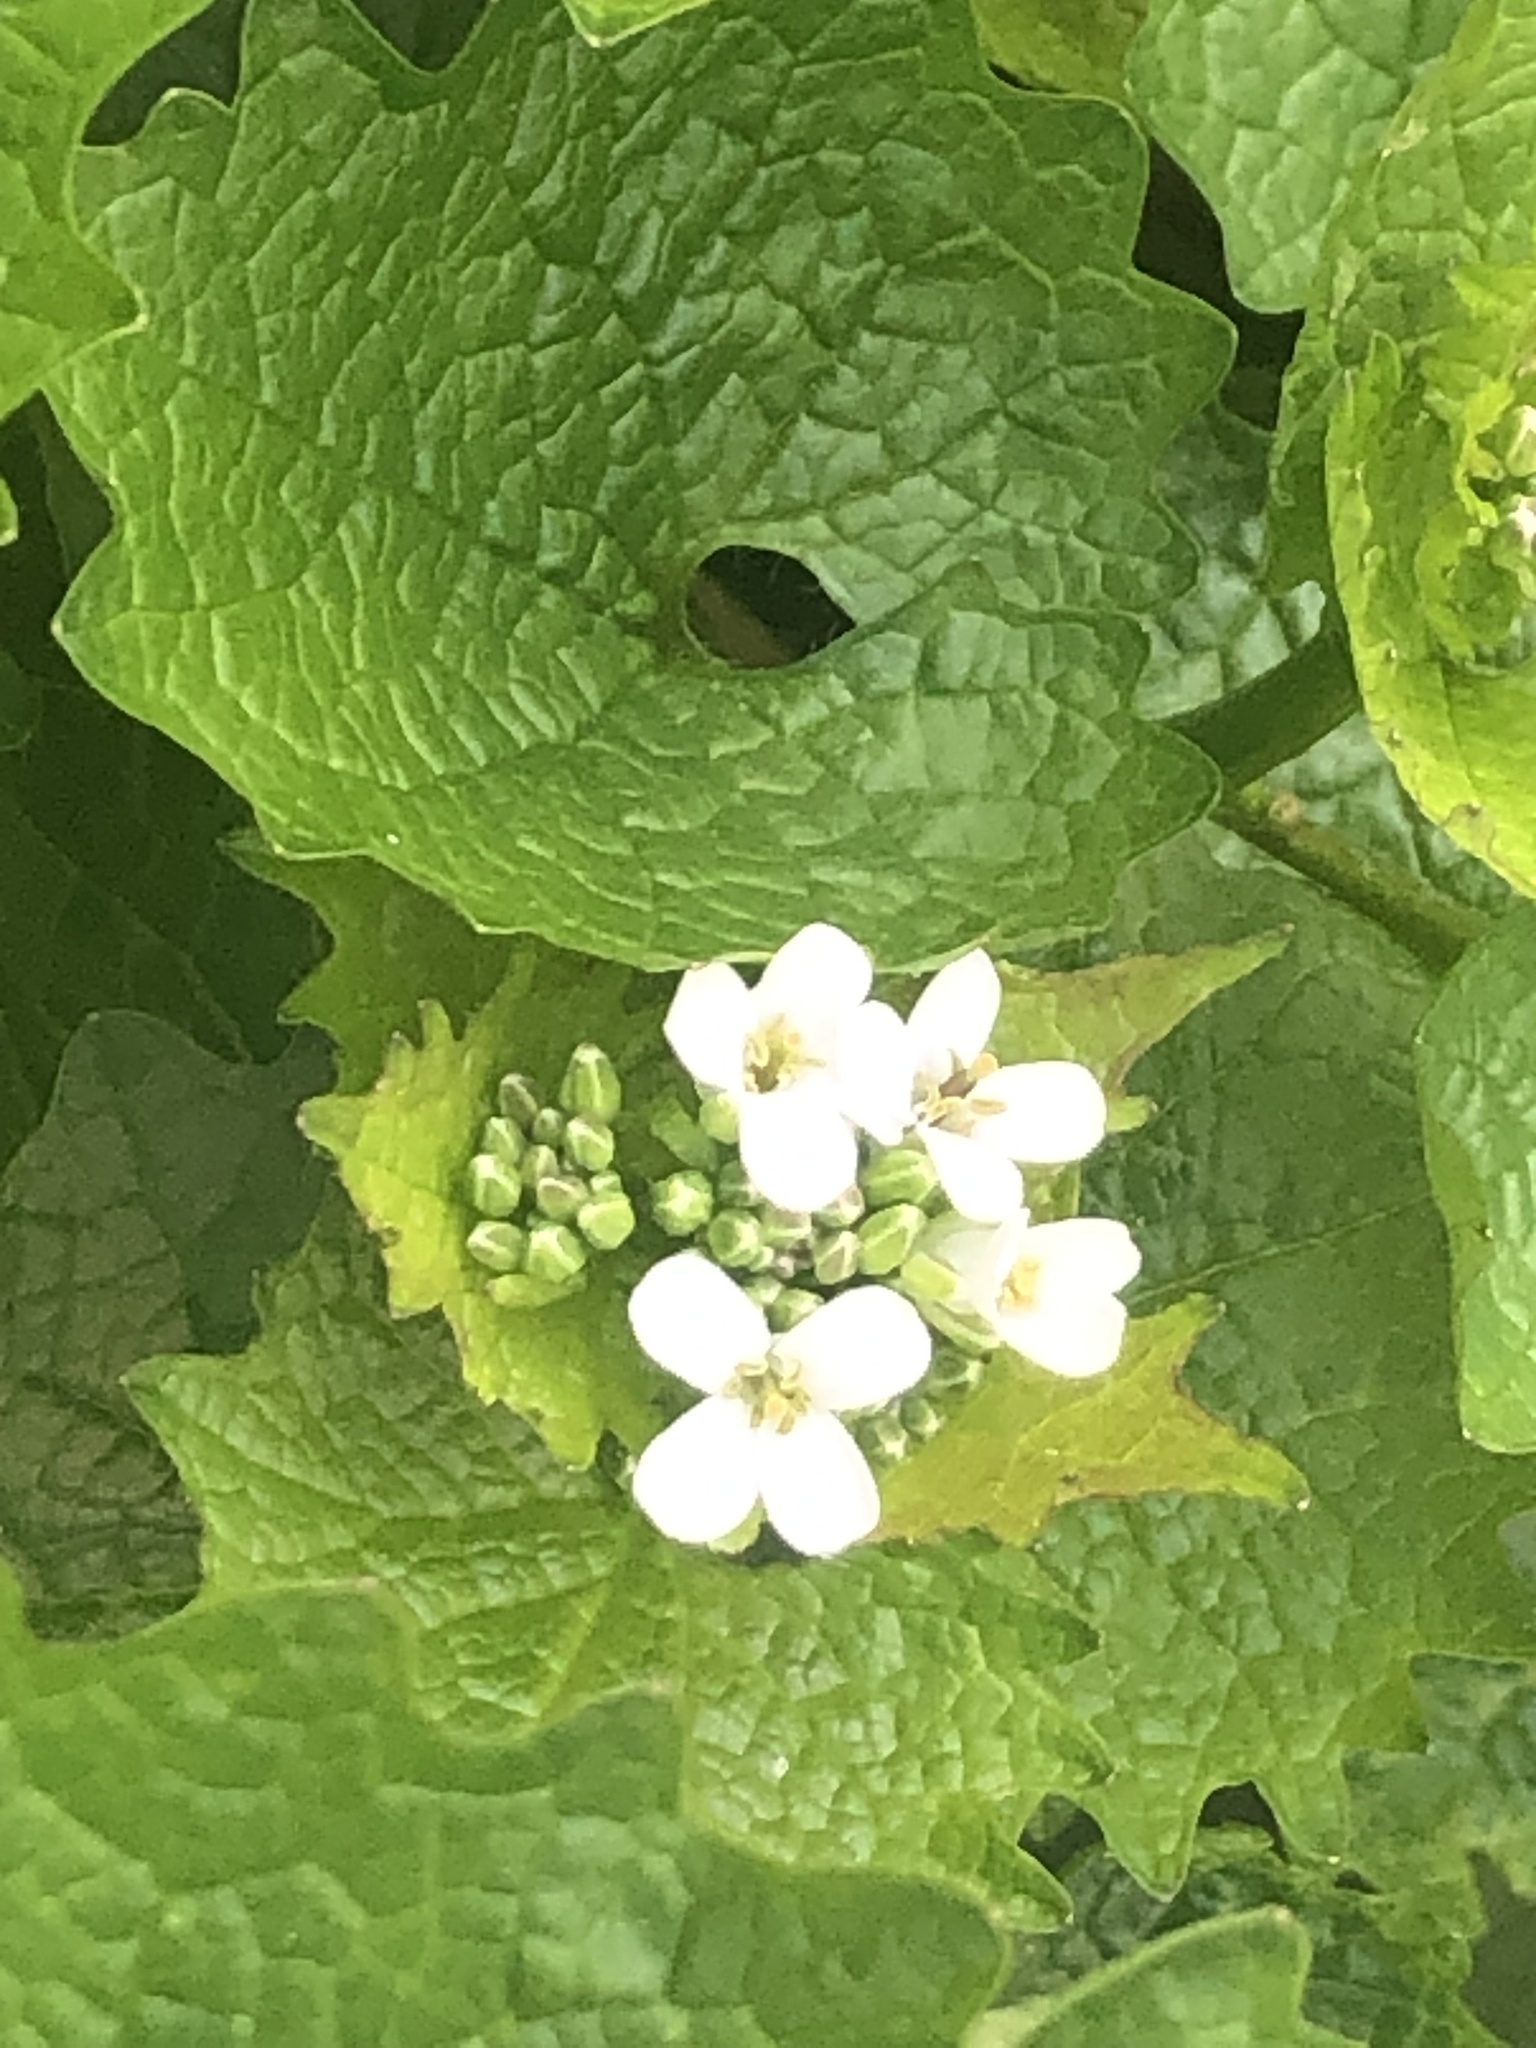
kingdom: Plantae
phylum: Tracheophyta
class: Magnoliopsida
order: Brassicales
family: Brassicaceae
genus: Alliaria
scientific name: Alliaria petiolata
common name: Garlic mustard
